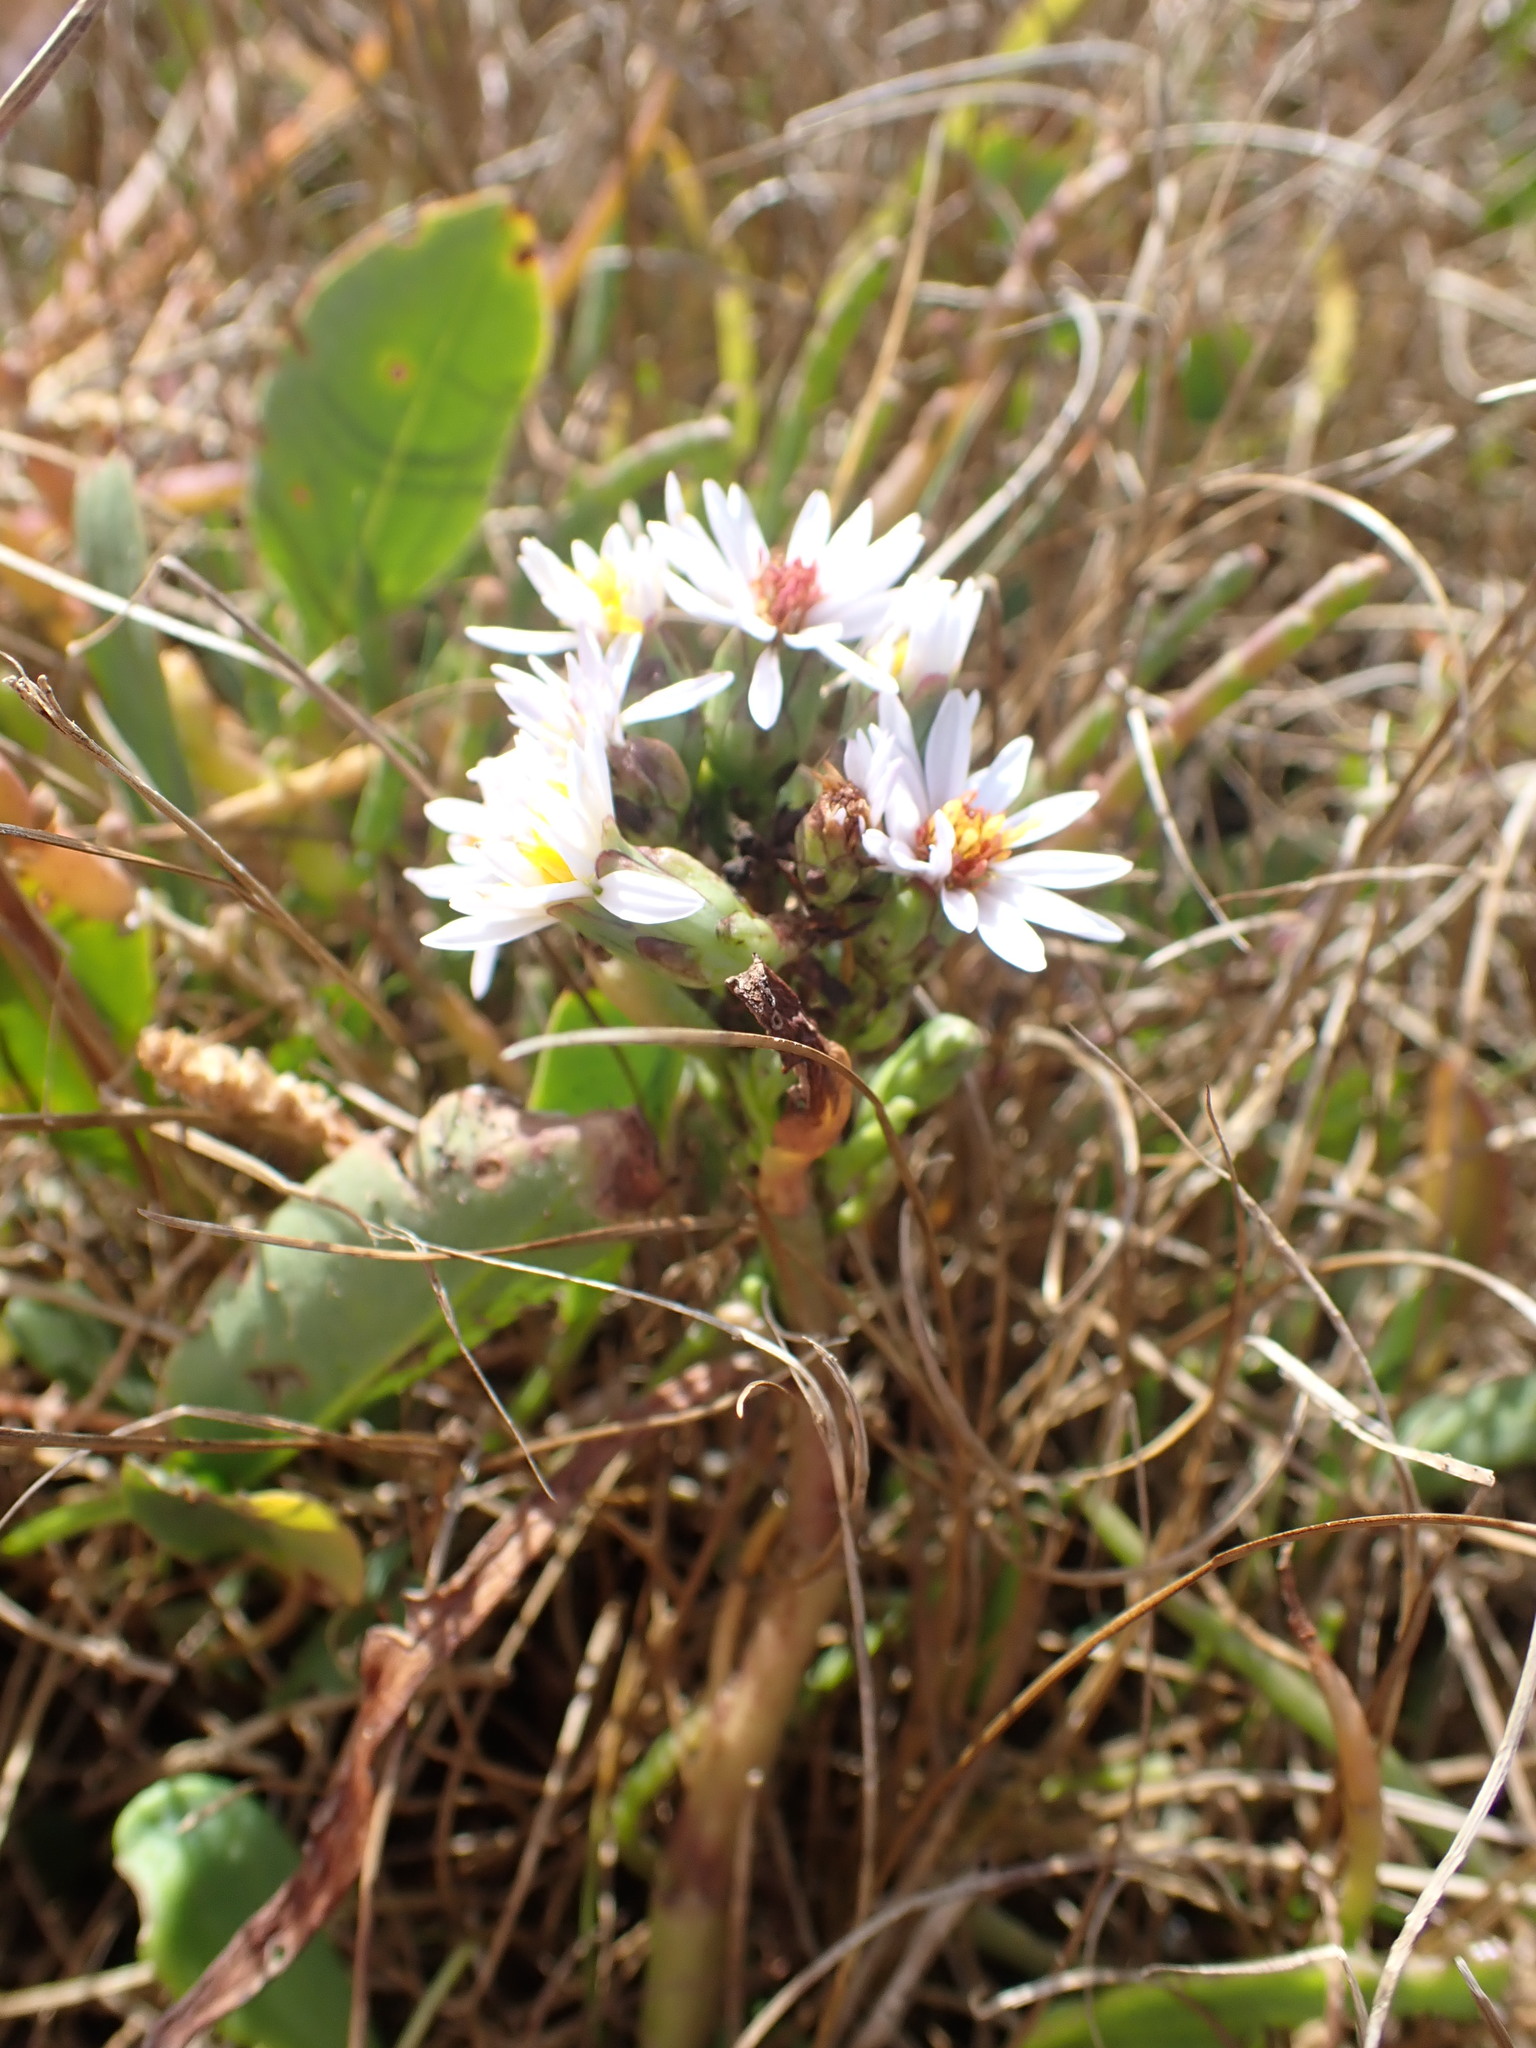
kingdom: Plantae
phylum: Tracheophyta
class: Magnoliopsida
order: Asterales
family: Asteraceae
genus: Tripolium
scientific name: Tripolium pannonicum
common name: Sea aster
